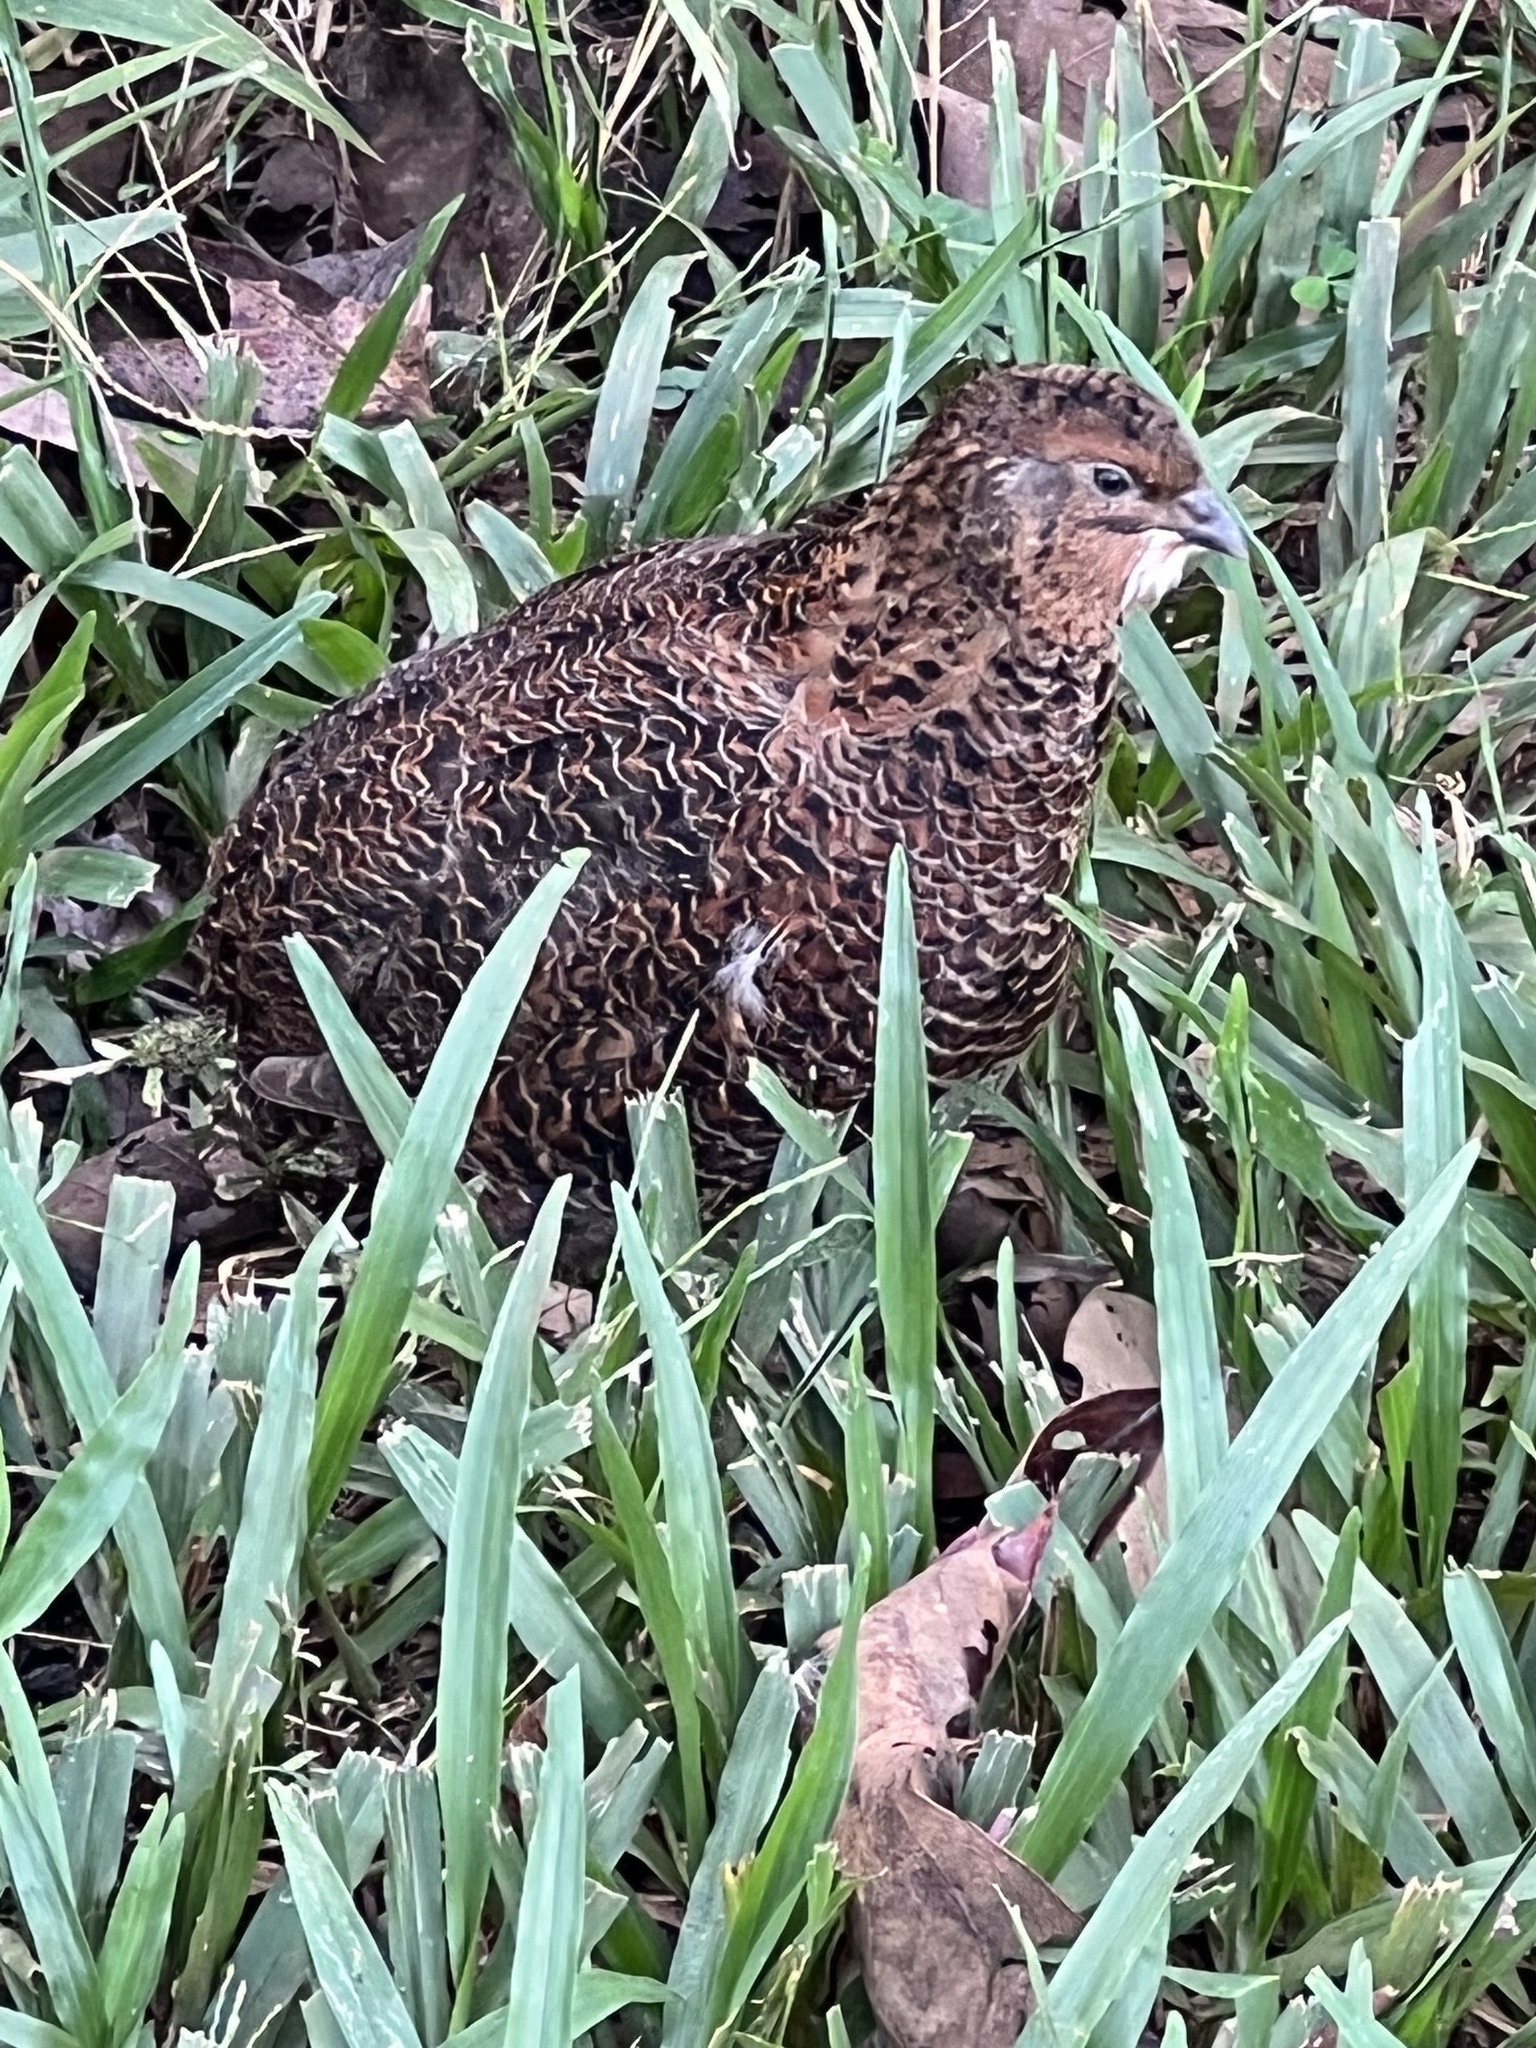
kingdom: Animalia
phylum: Chordata
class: Aves
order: Galliformes
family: Phasianidae
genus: Coturnix
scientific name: Coturnix japonica
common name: Japanese quail
